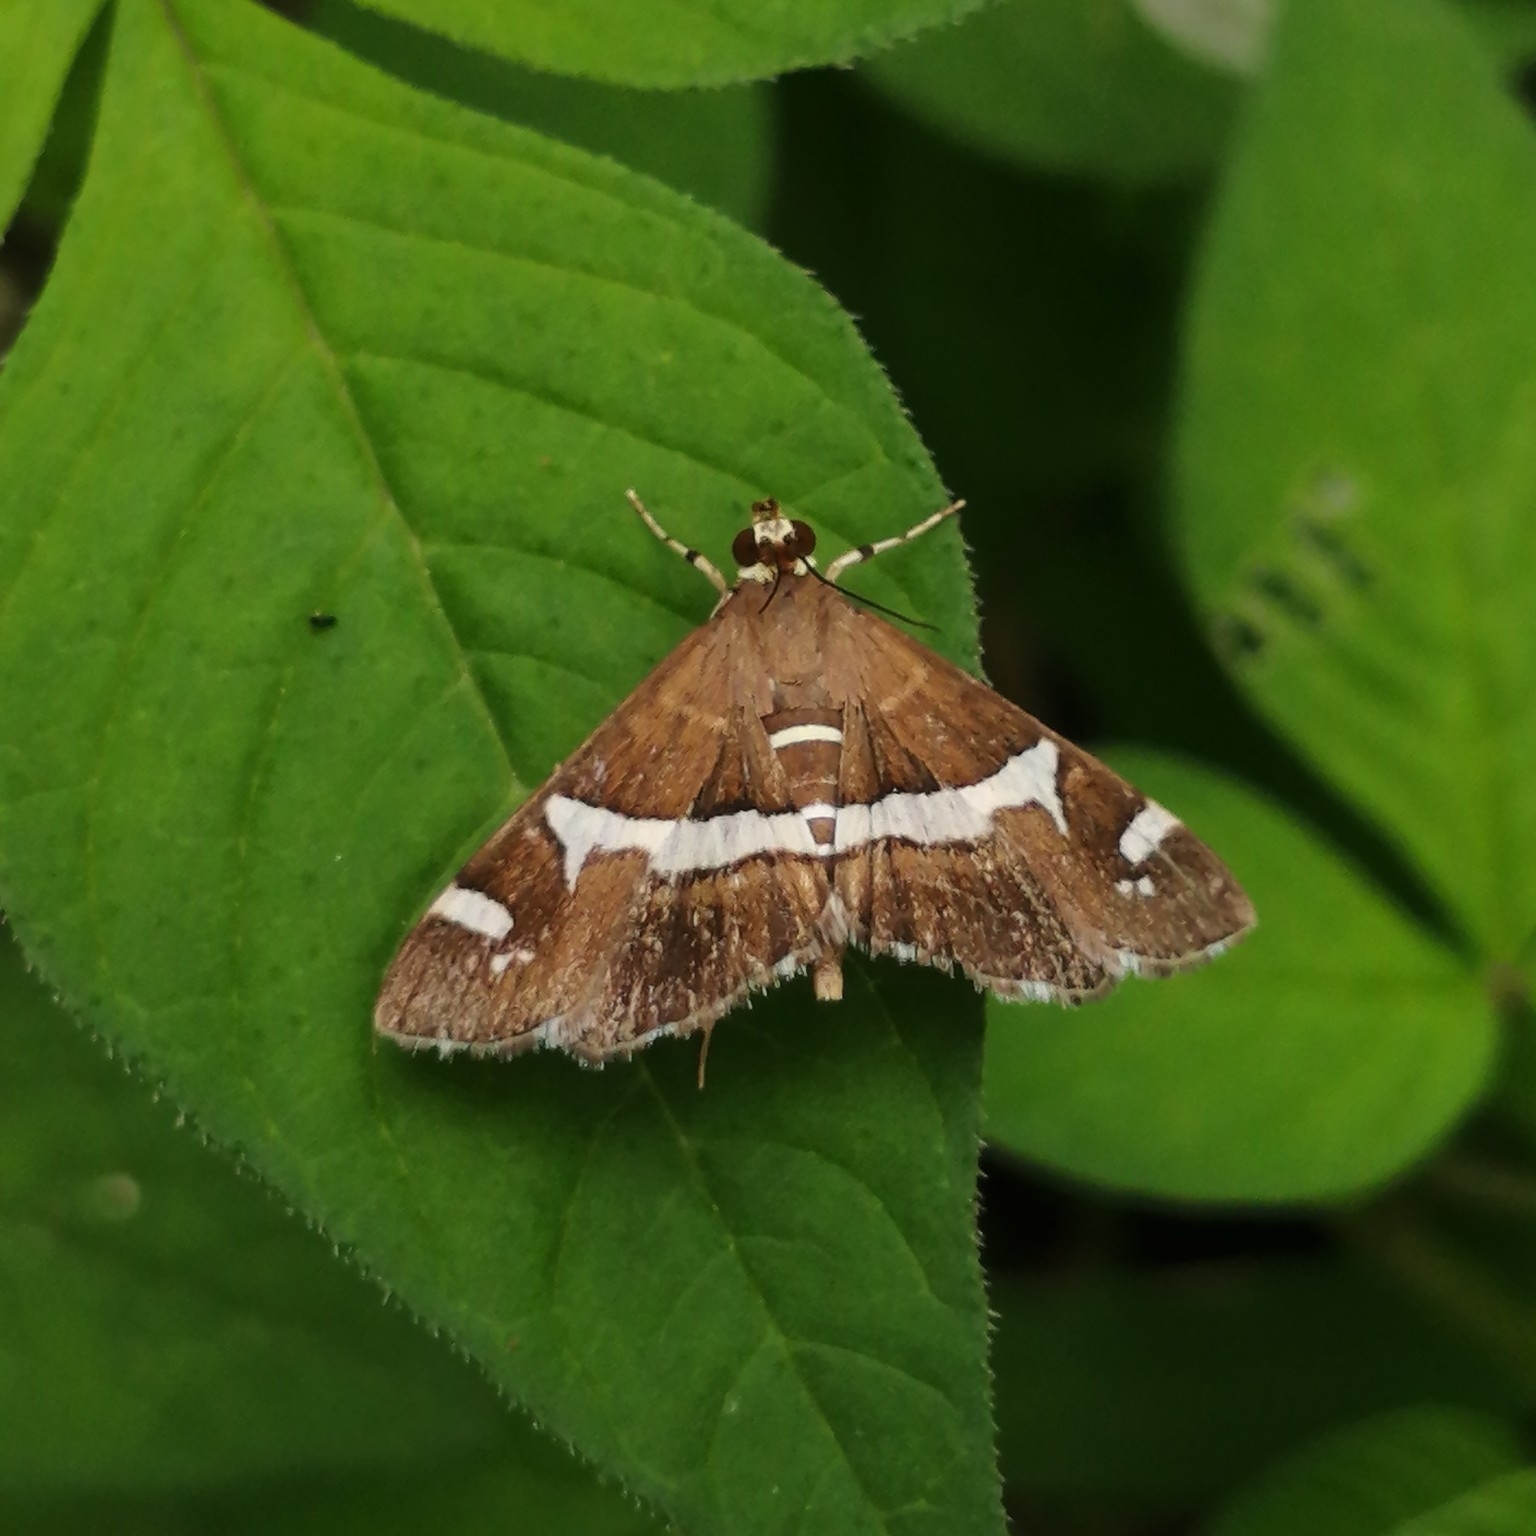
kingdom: Animalia
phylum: Arthropoda
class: Insecta
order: Lepidoptera
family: Crambidae
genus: Spoladea
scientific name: Spoladea recurvalis
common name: Beet webworm moth
